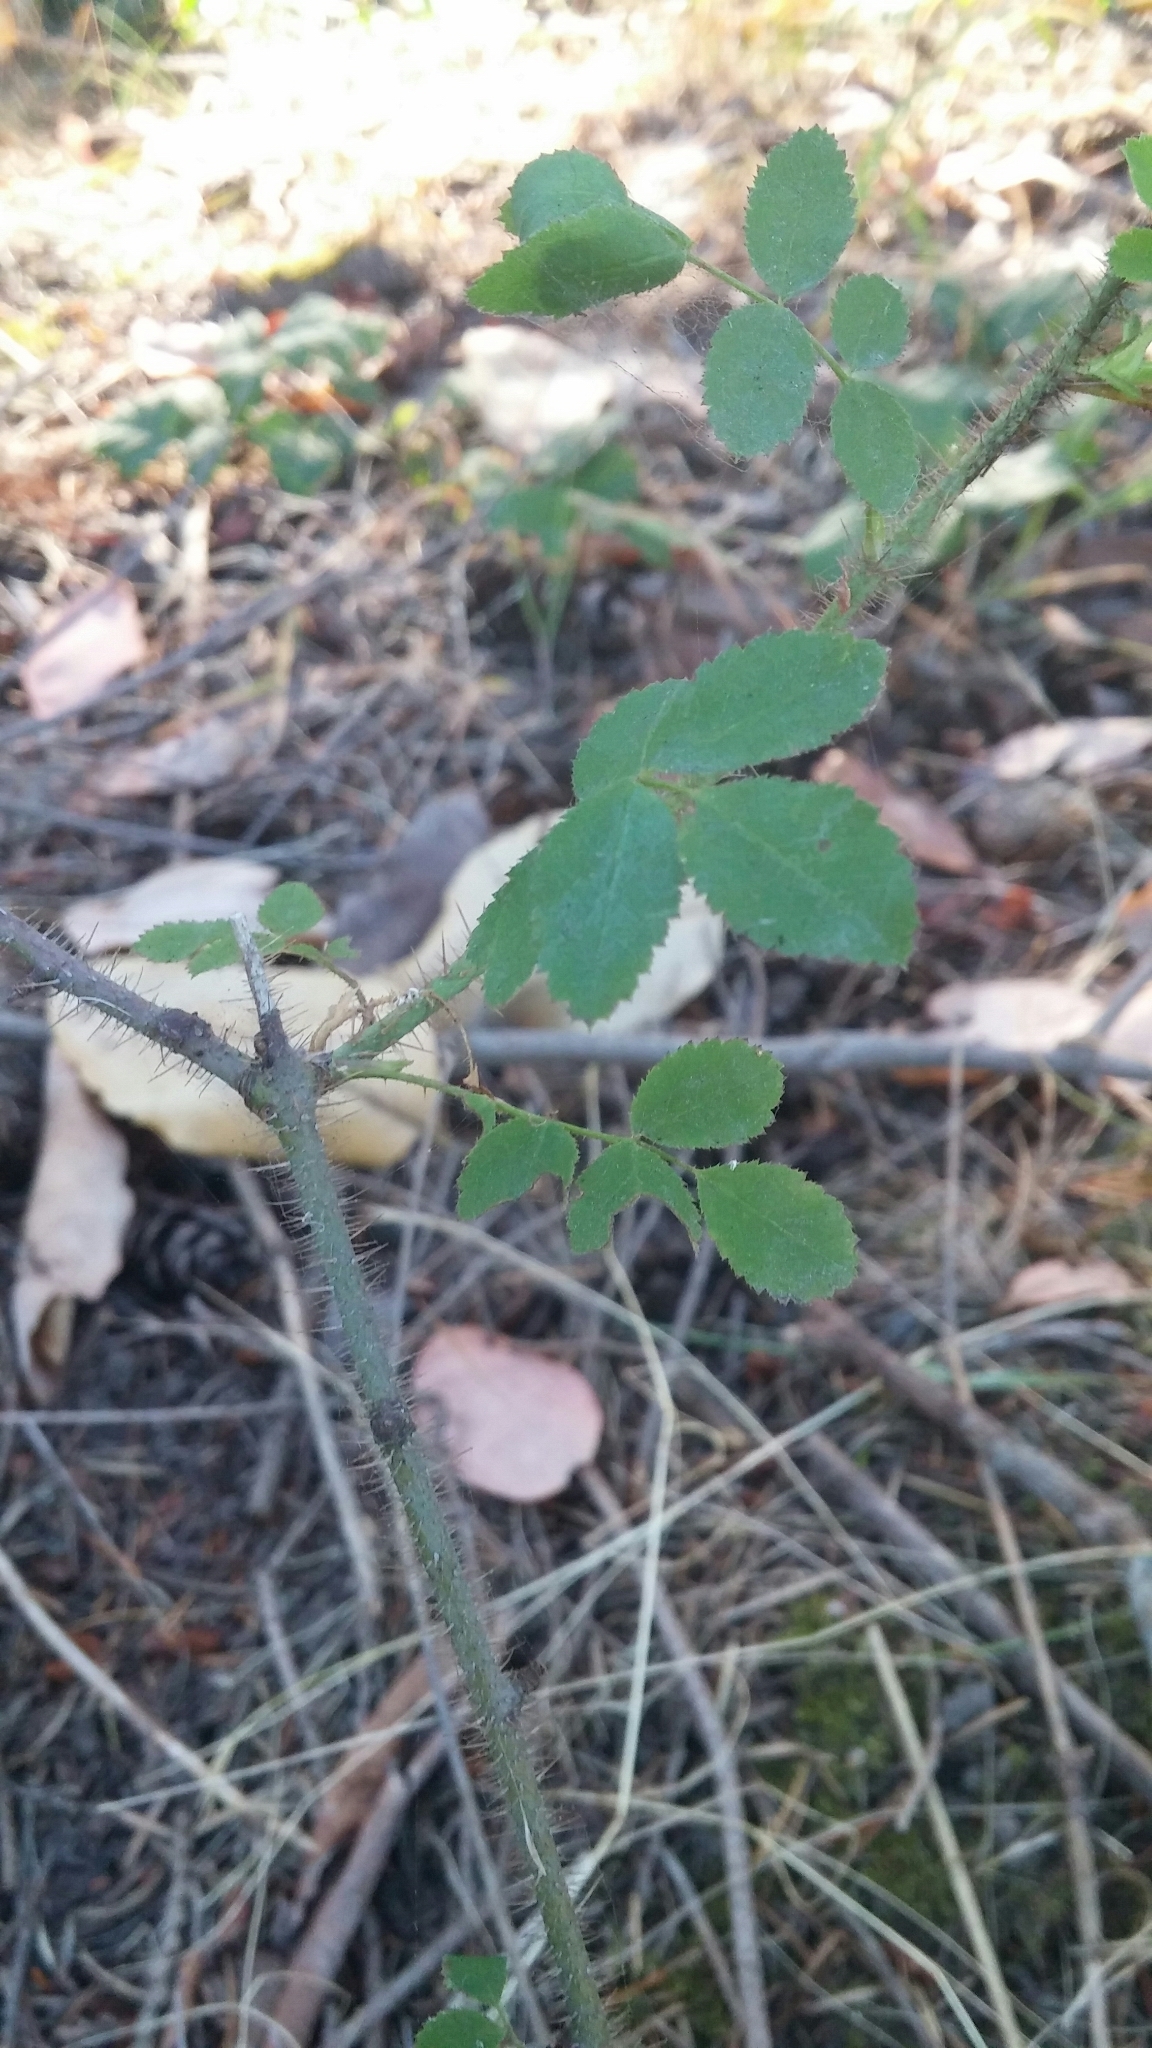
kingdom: Plantae
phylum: Tracheophyta
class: Magnoliopsida
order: Rosales
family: Rosaceae
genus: Rosa
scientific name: Rosa gymnocarpa
